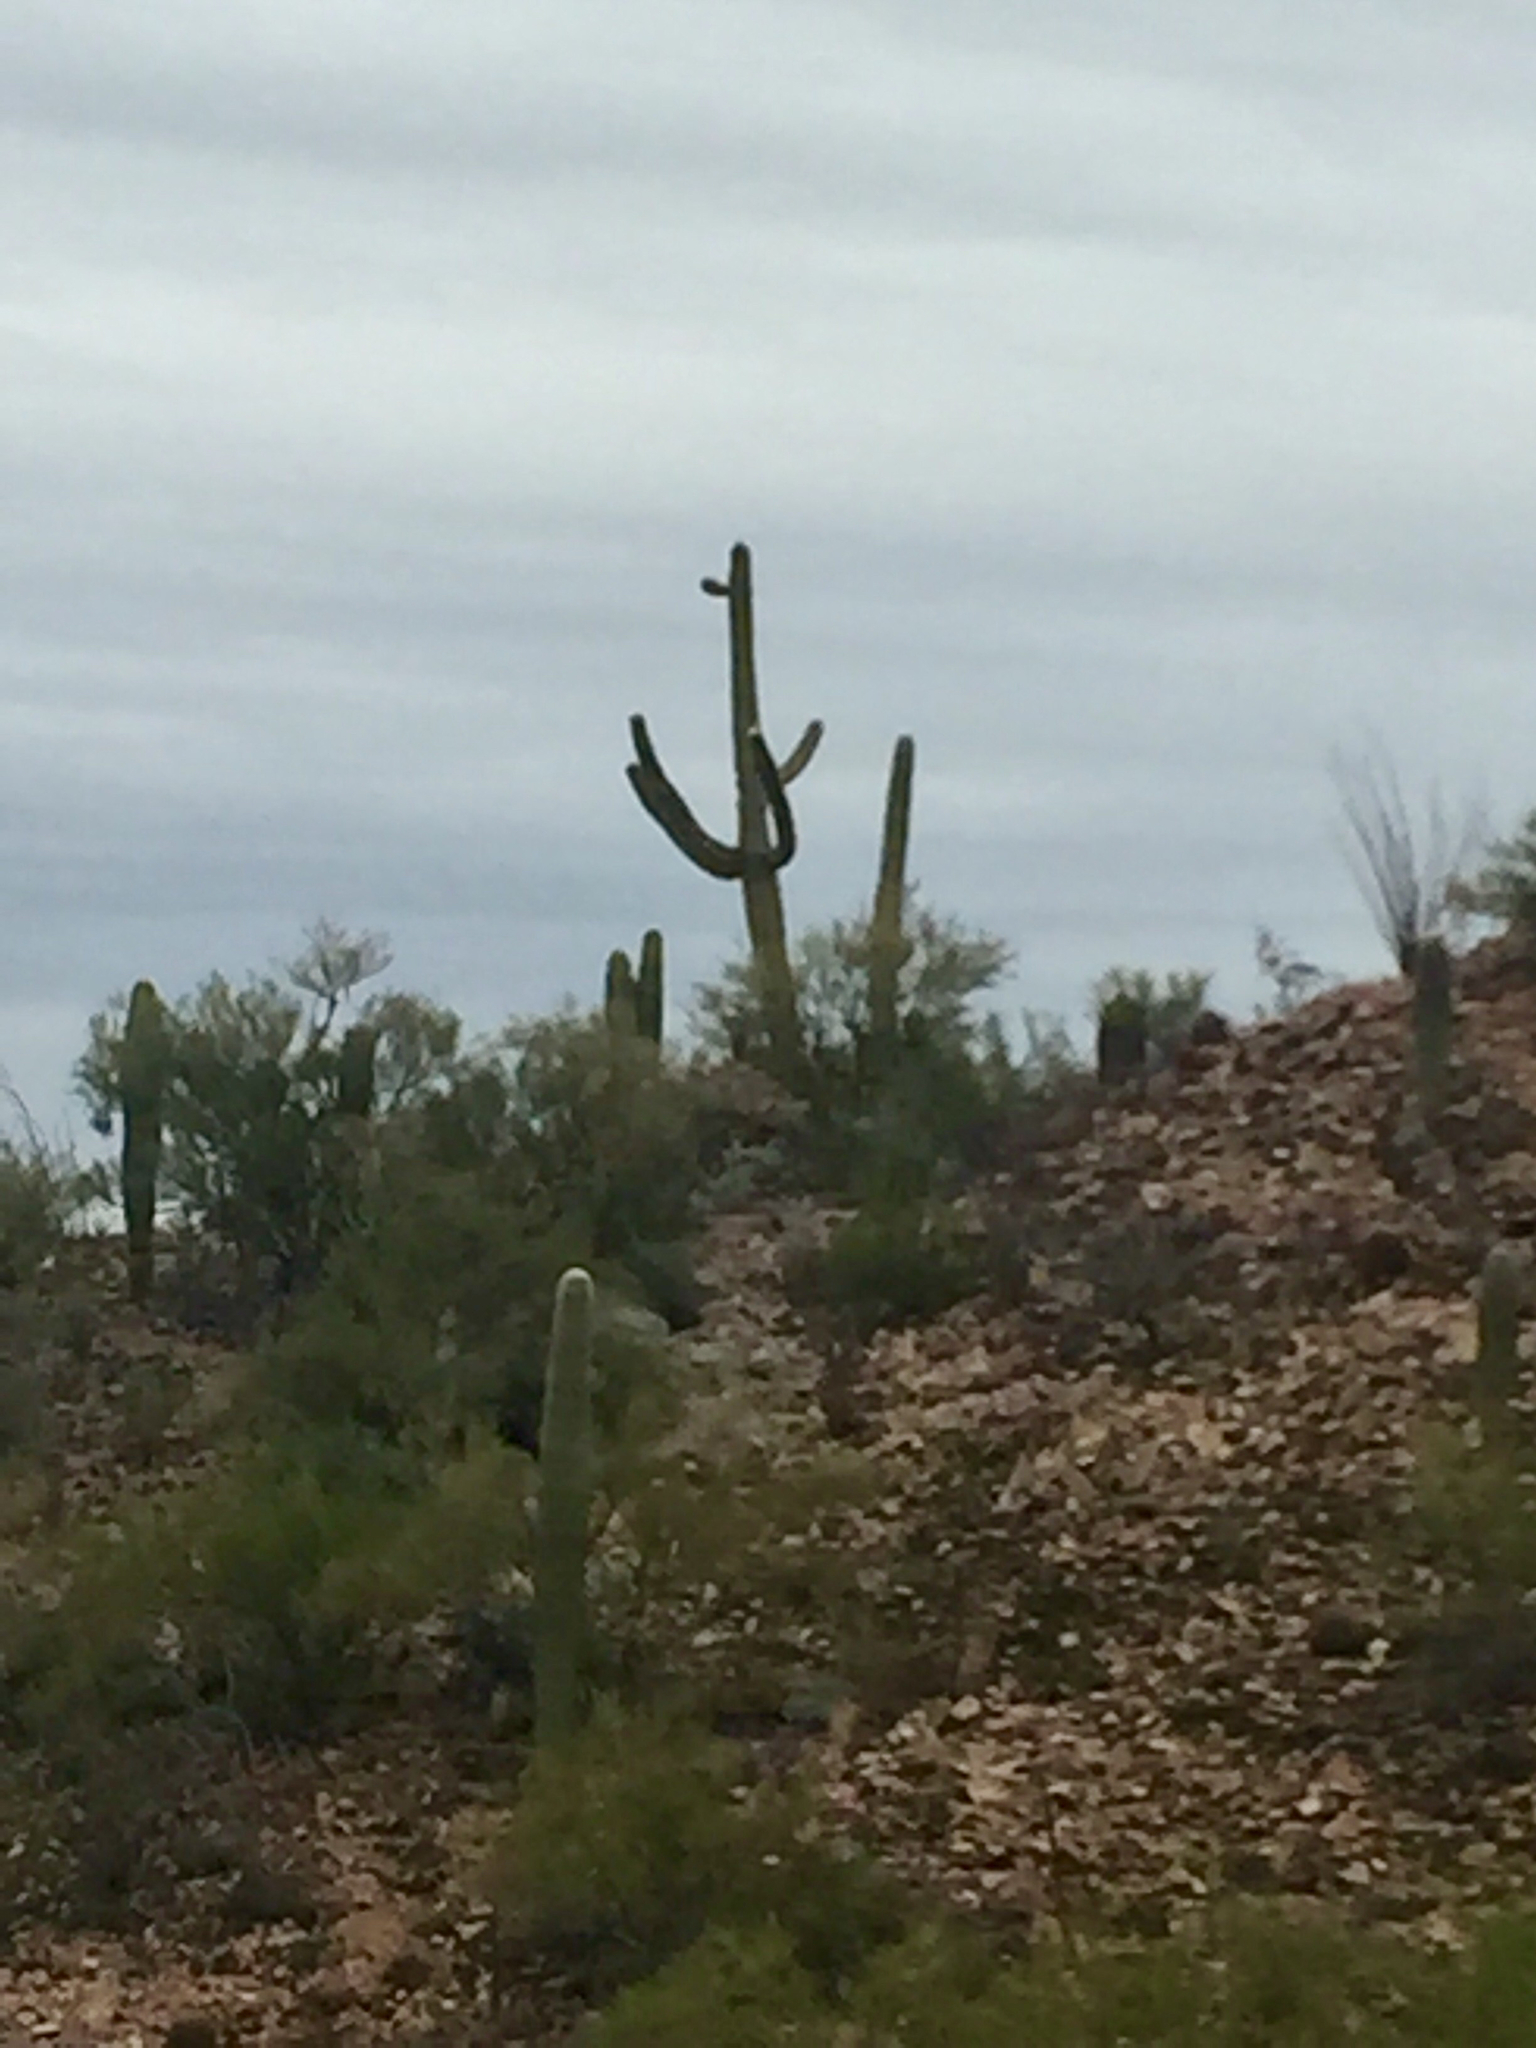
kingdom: Plantae
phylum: Tracheophyta
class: Magnoliopsida
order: Caryophyllales
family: Cactaceae
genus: Carnegiea
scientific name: Carnegiea gigantea
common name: Saguaro
